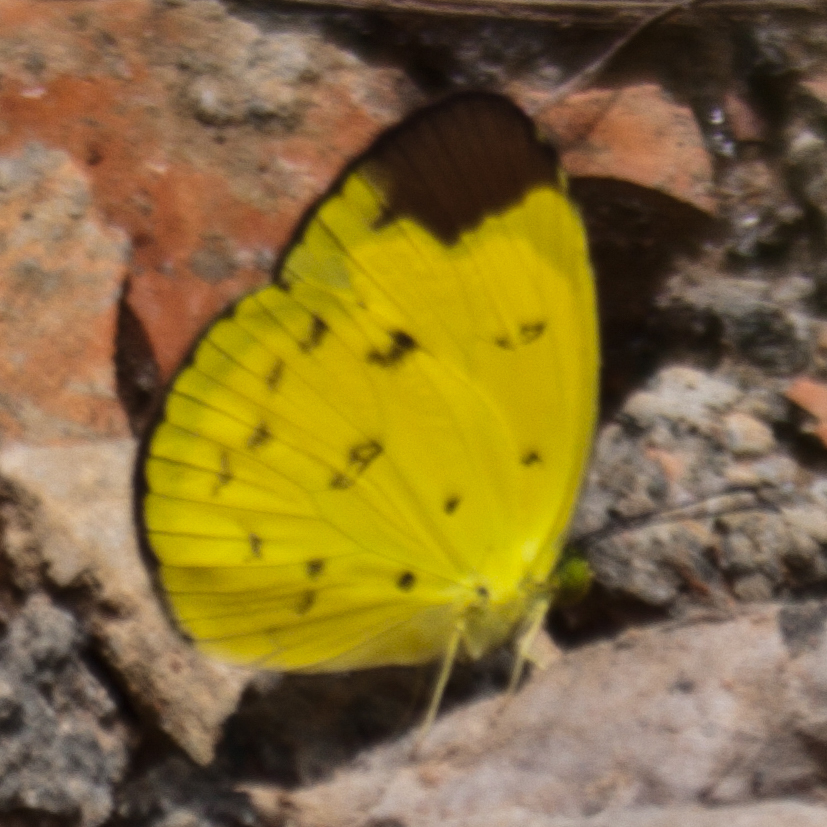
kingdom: Animalia
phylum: Arthropoda
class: Insecta
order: Lepidoptera
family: Pieridae
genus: Eurema
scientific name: Eurema sari
